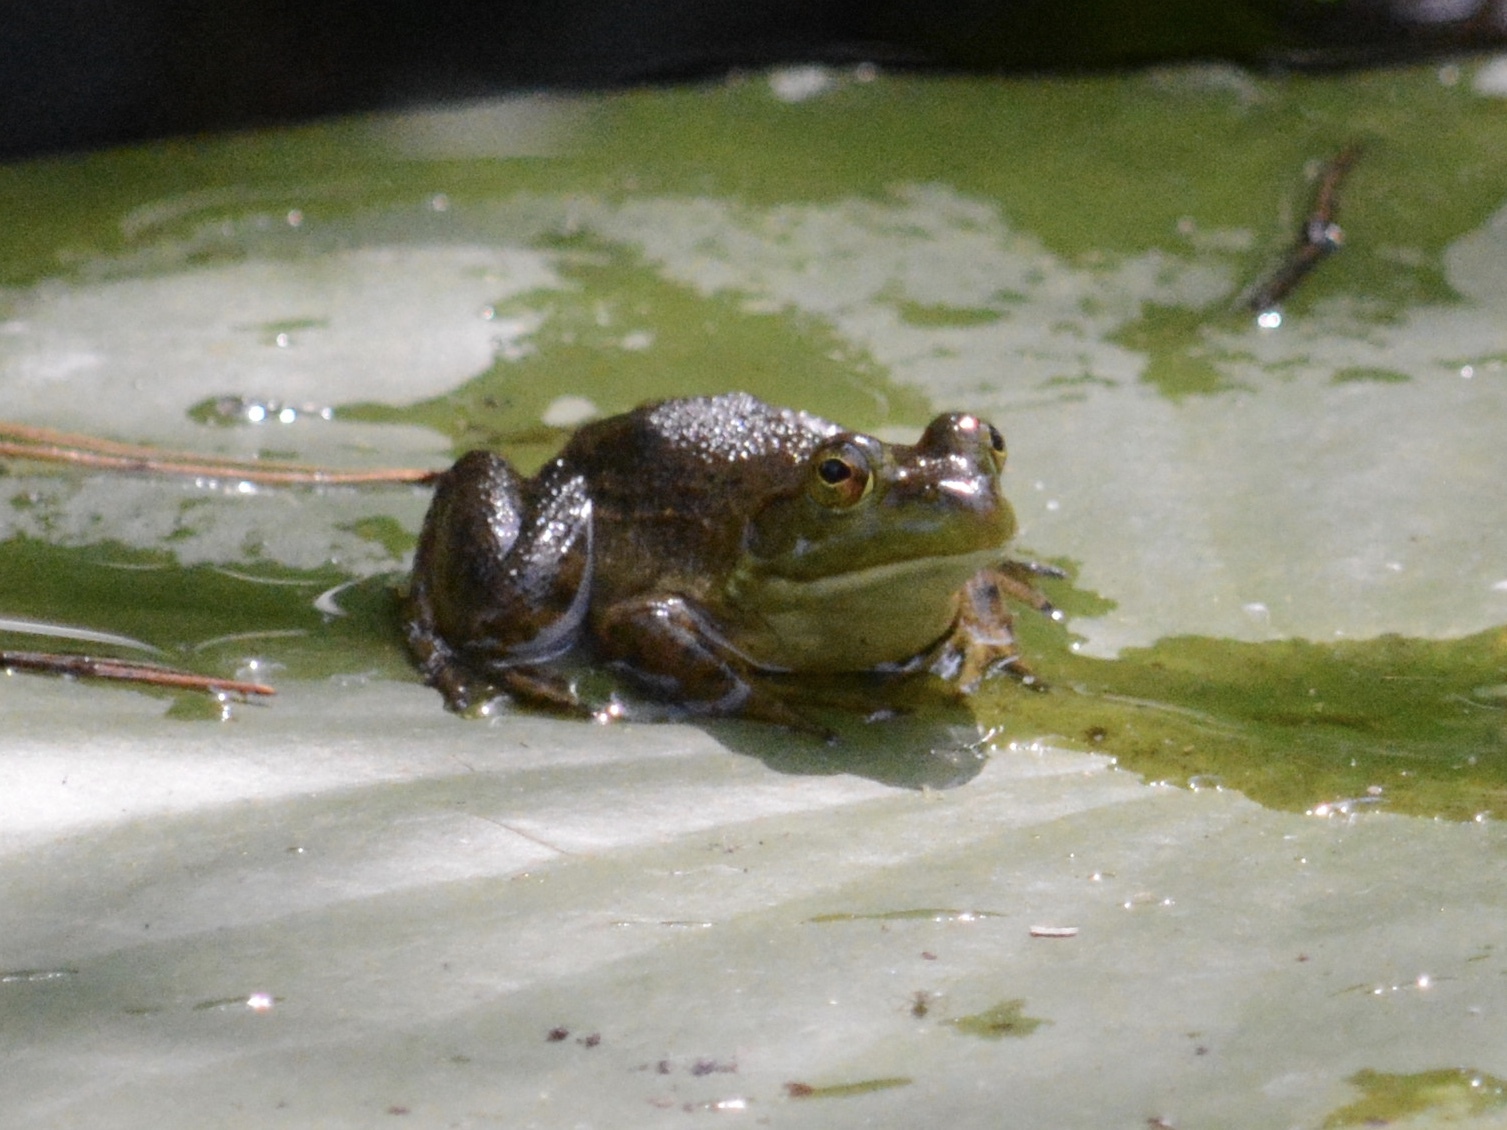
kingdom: Animalia
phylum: Chordata
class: Amphibia
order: Anura
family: Ranidae
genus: Lithobates
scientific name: Lithobates catesbeianus
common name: American bullfrog
